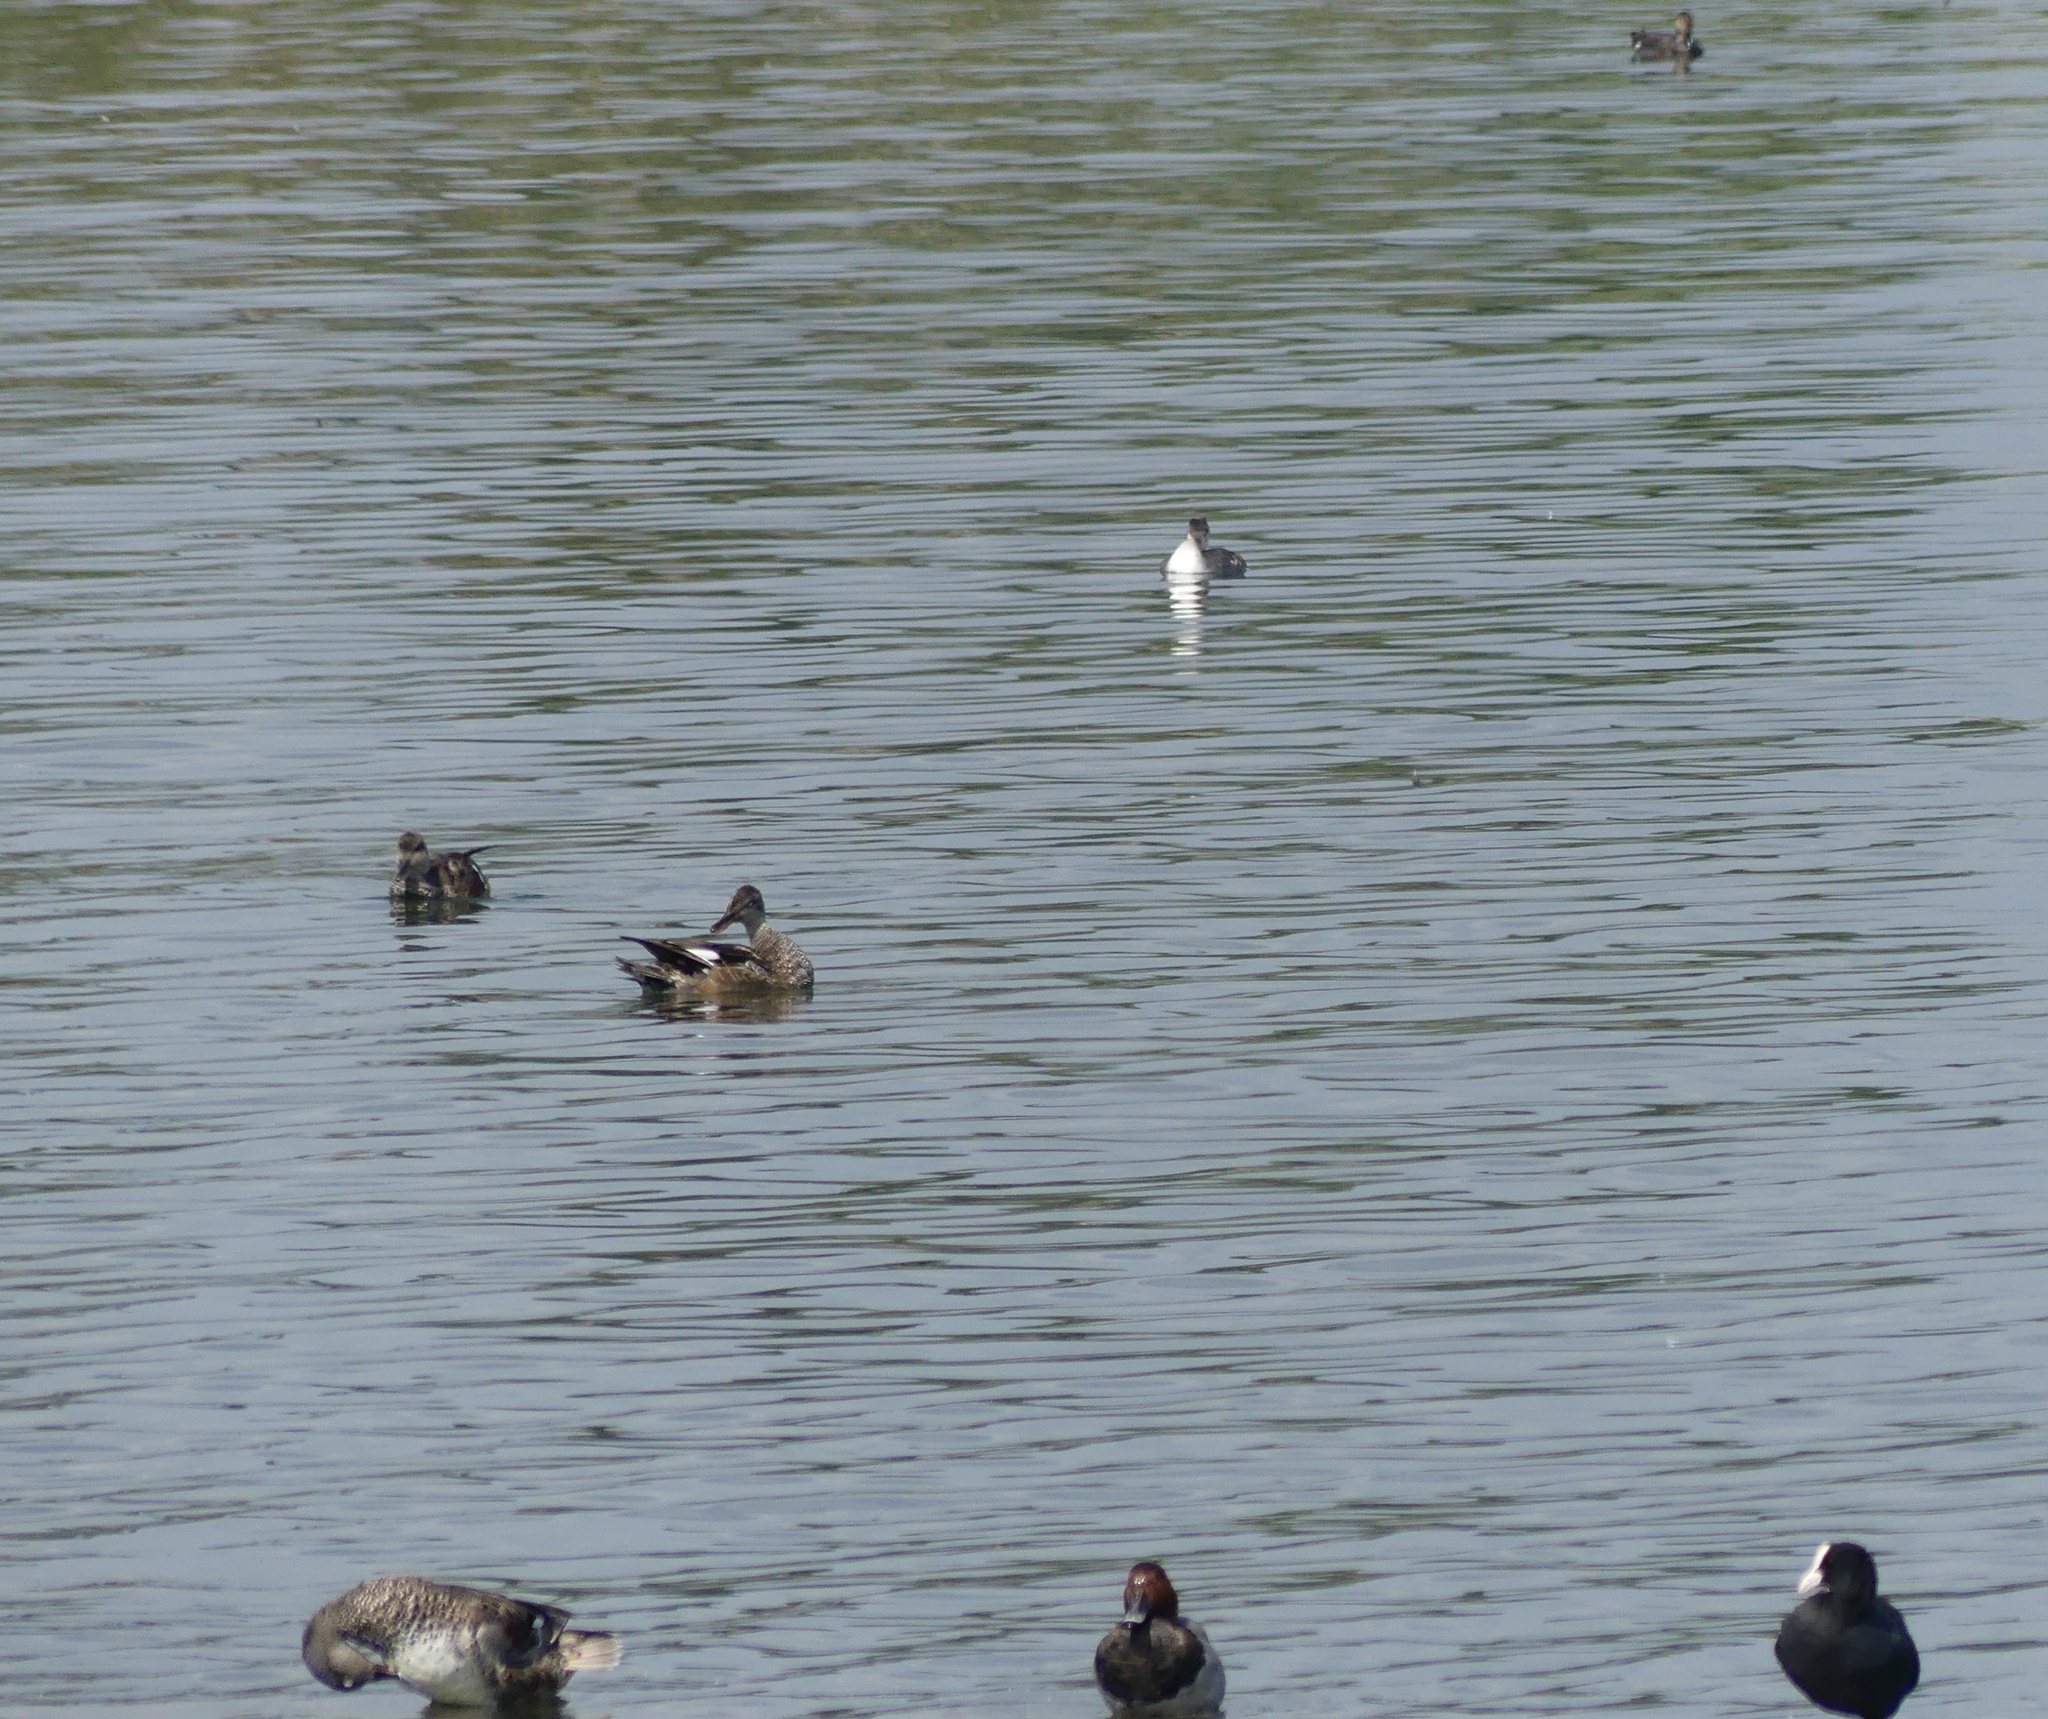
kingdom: Animalia
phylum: Chordata
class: Aves
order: Anseriformes
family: Anatidae
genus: Aythya
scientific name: Aythya ferina
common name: Common pochard
